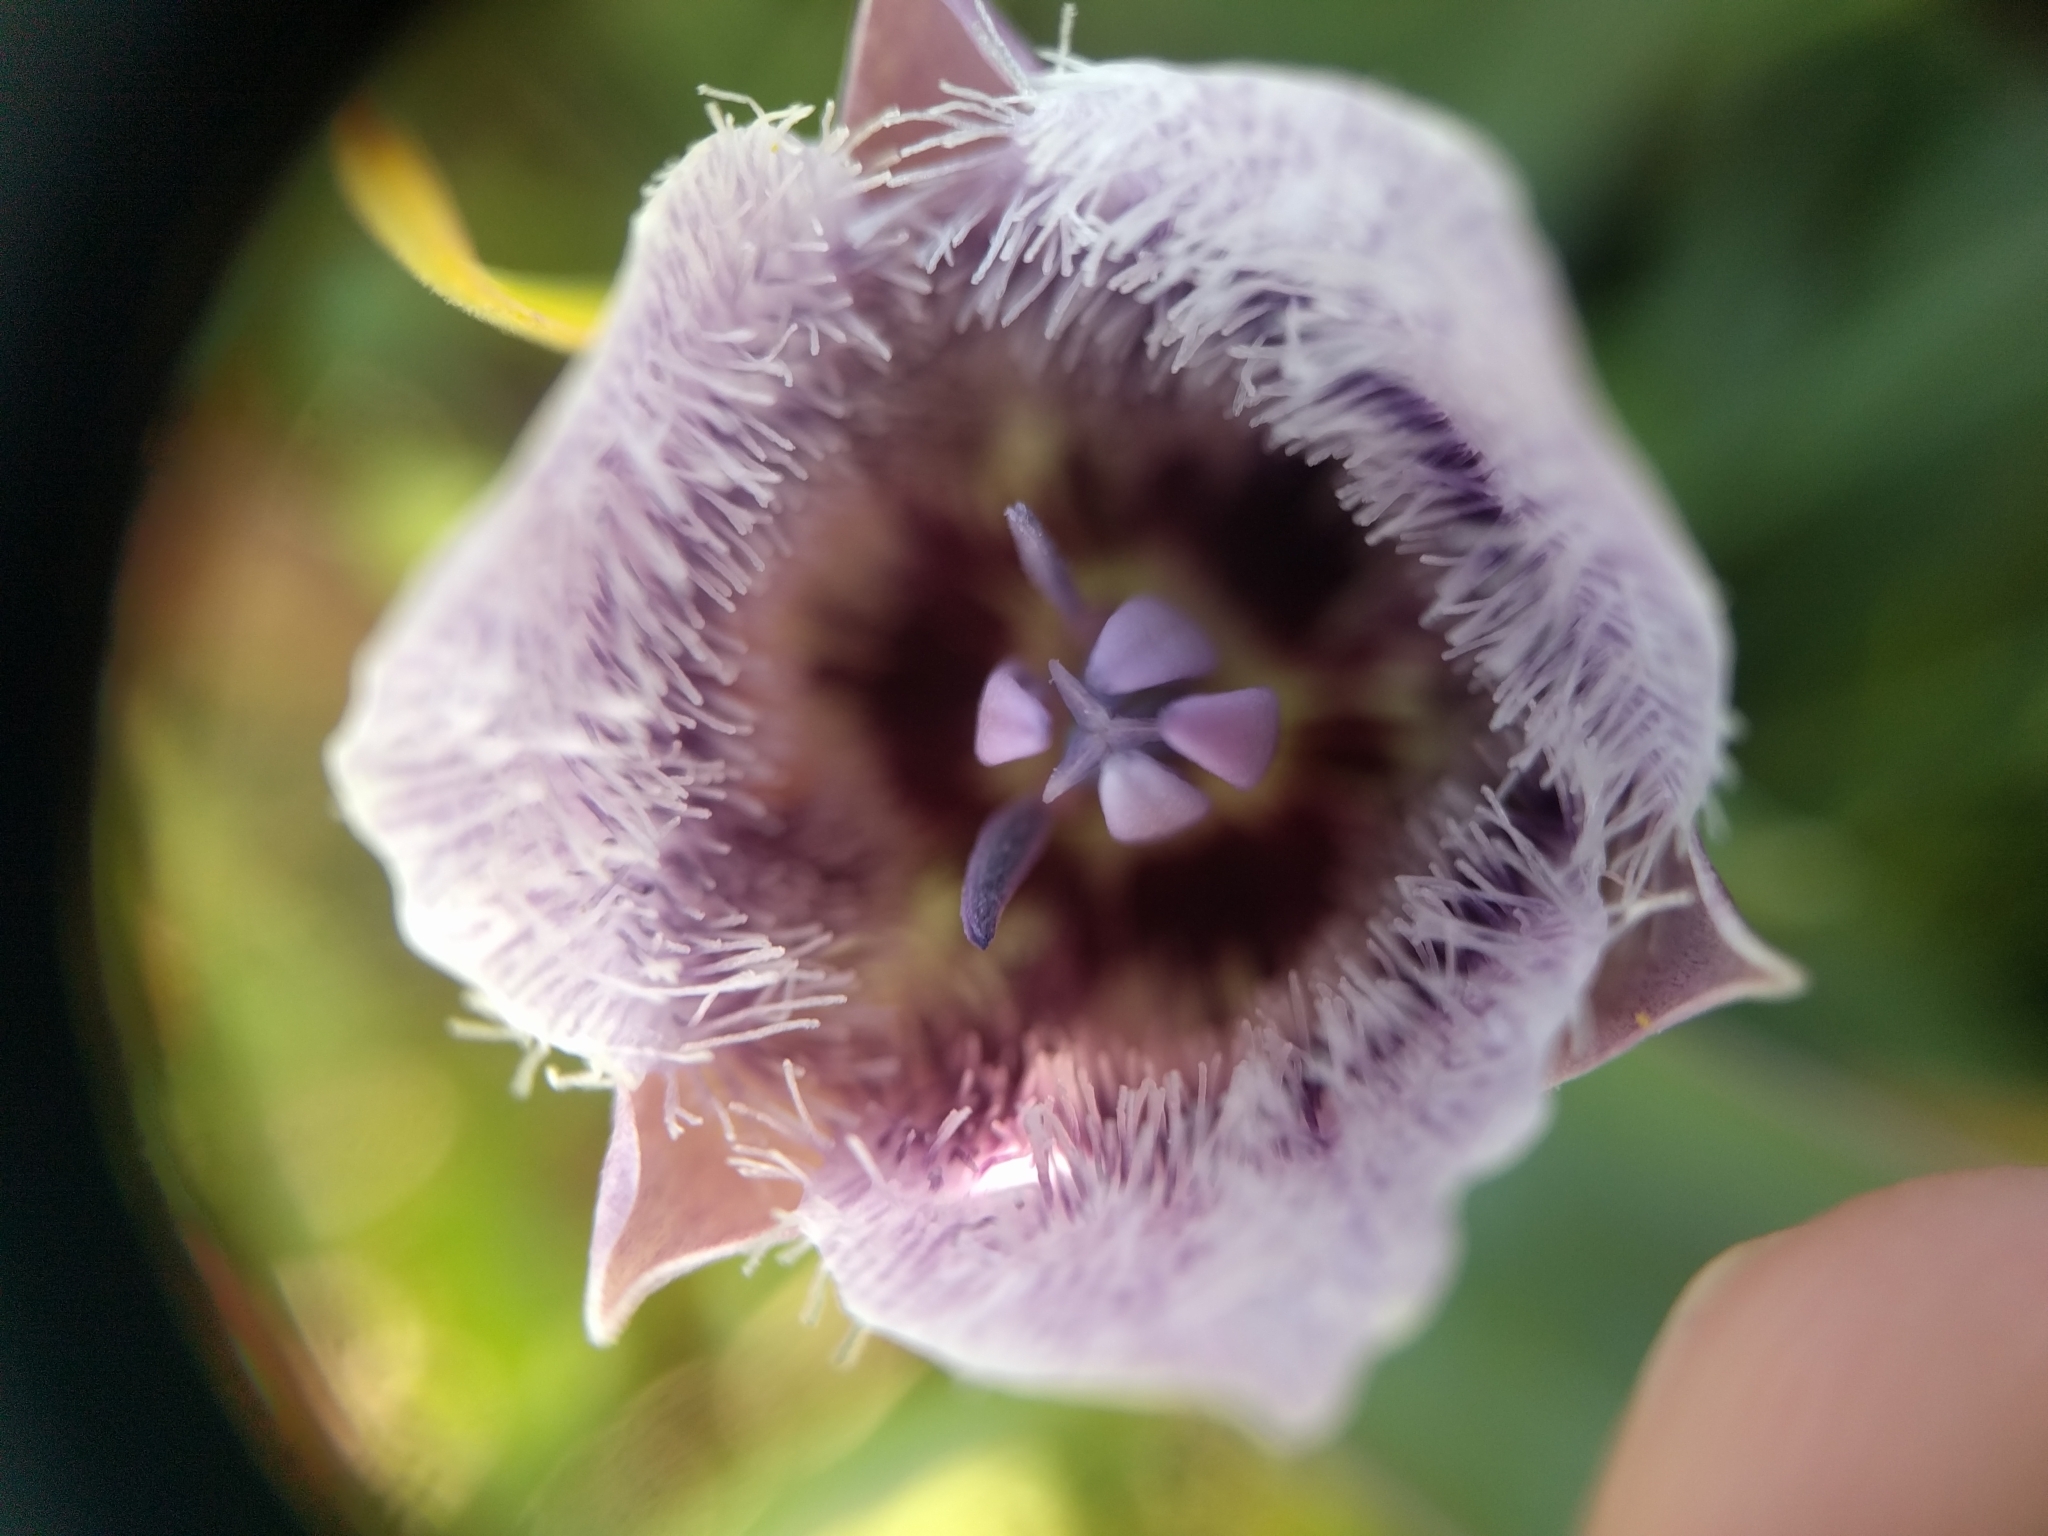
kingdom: Plantae
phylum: Tracheophyta
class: Liliopsida
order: Liliales
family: Liliaceae
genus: Calochortus
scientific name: Calochortus tolmiei
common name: Pussy-ears
